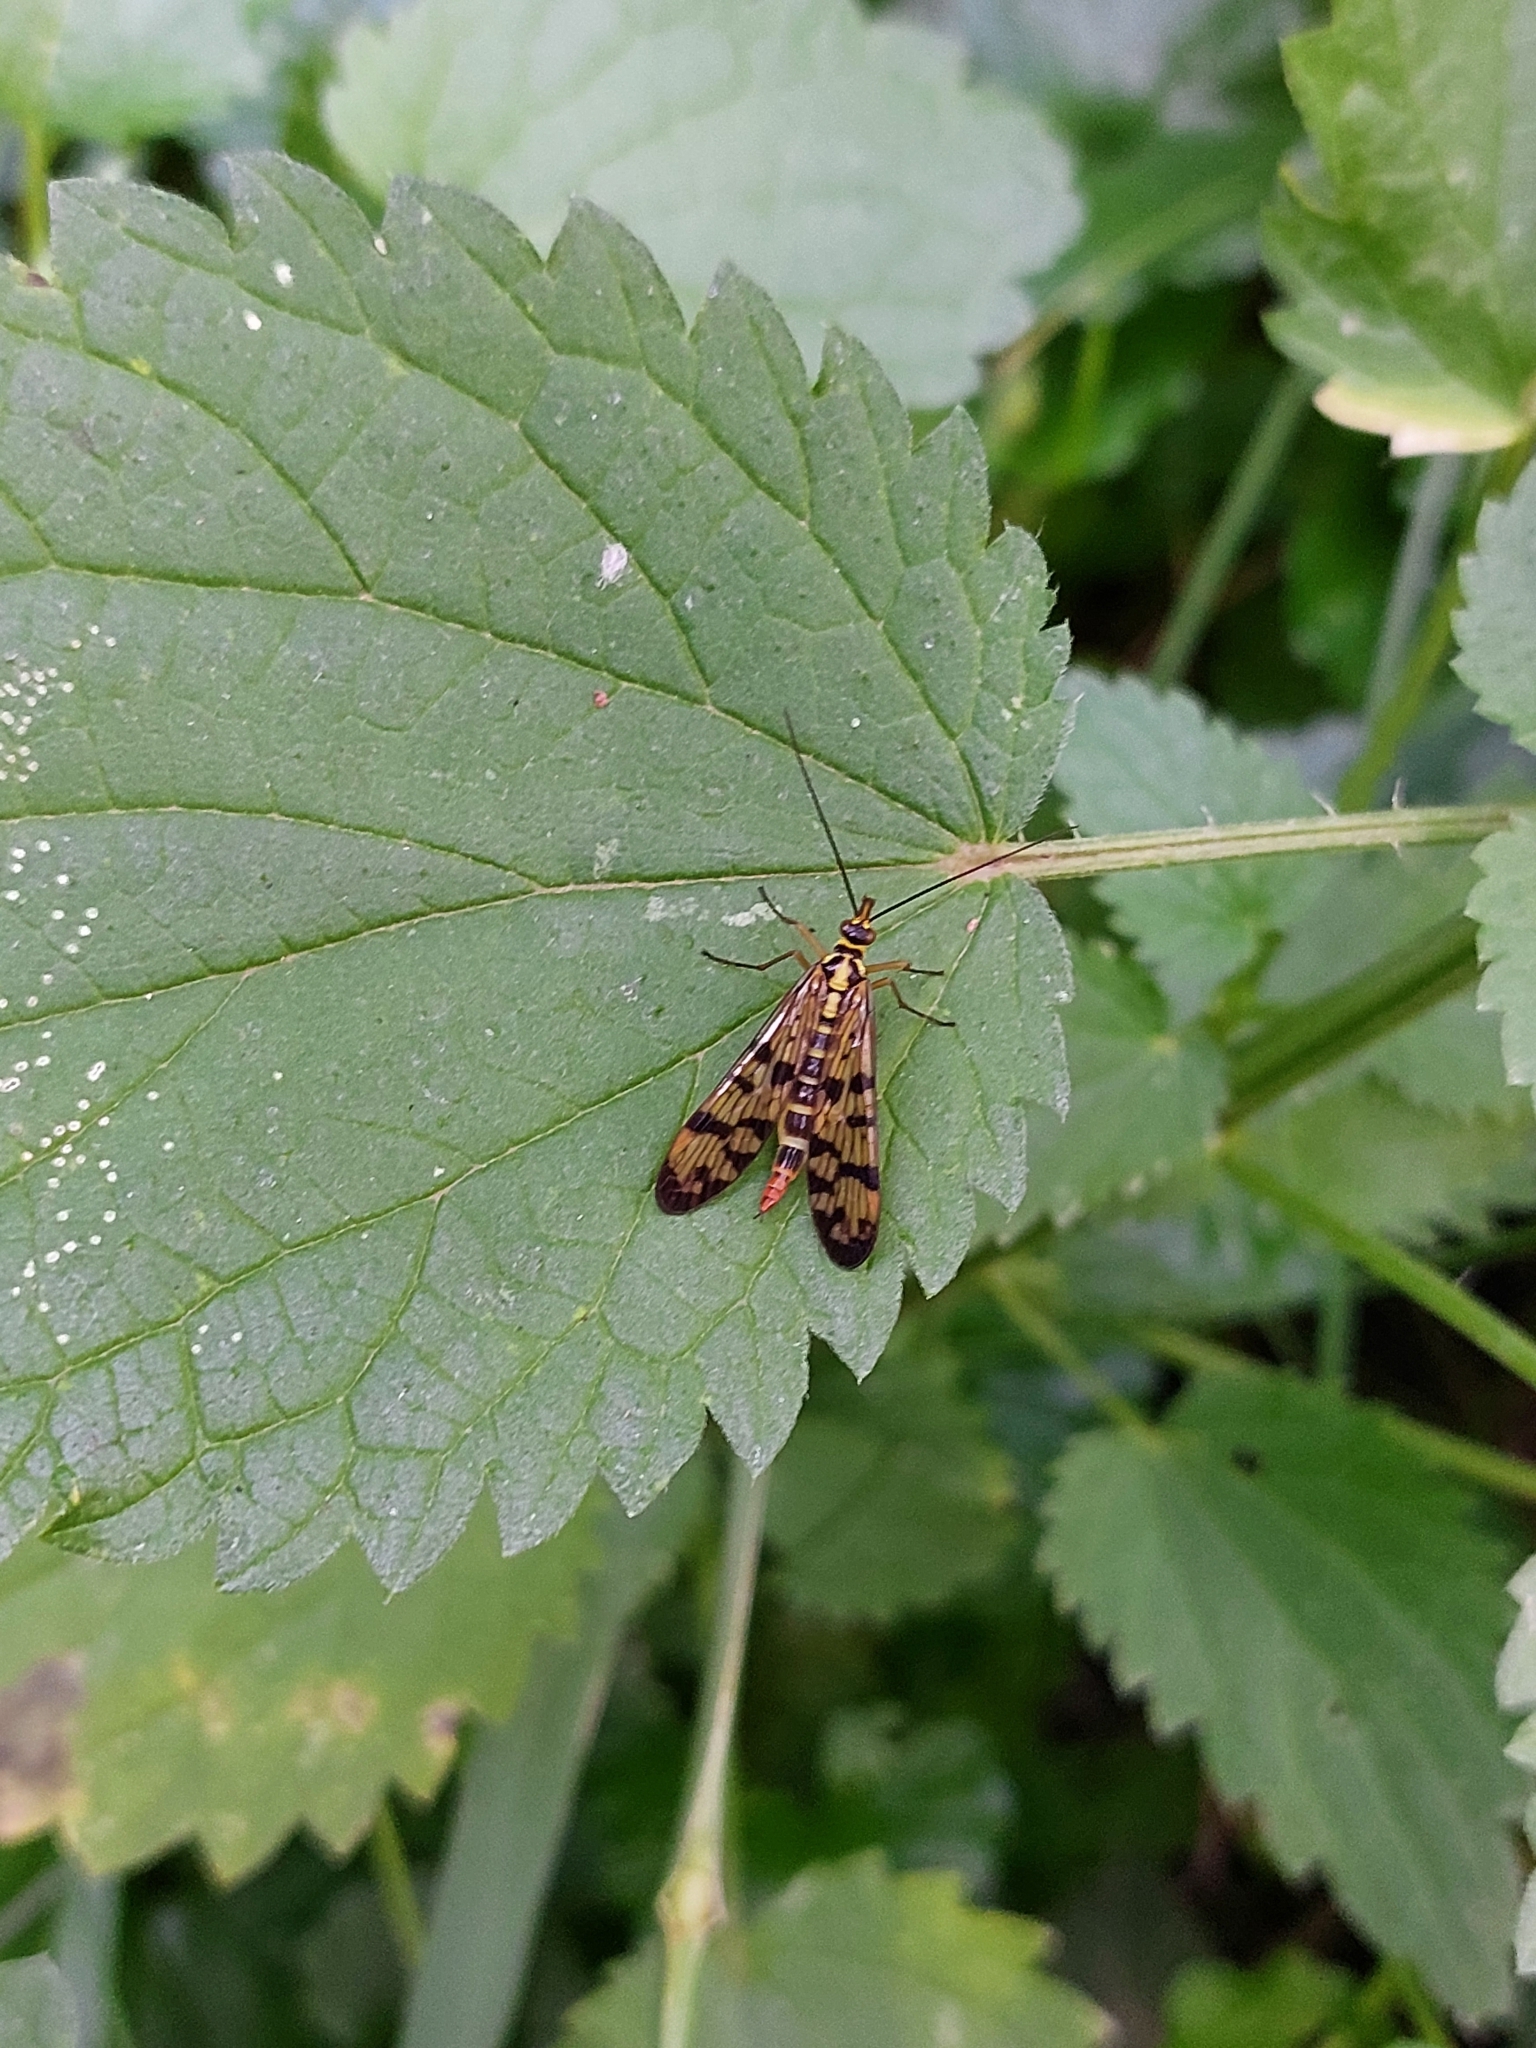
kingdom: Animalia
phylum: Arthropoda
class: Insecta
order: Mecoptera
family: Panorpidae
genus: Panorpa
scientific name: Panorpa communis
